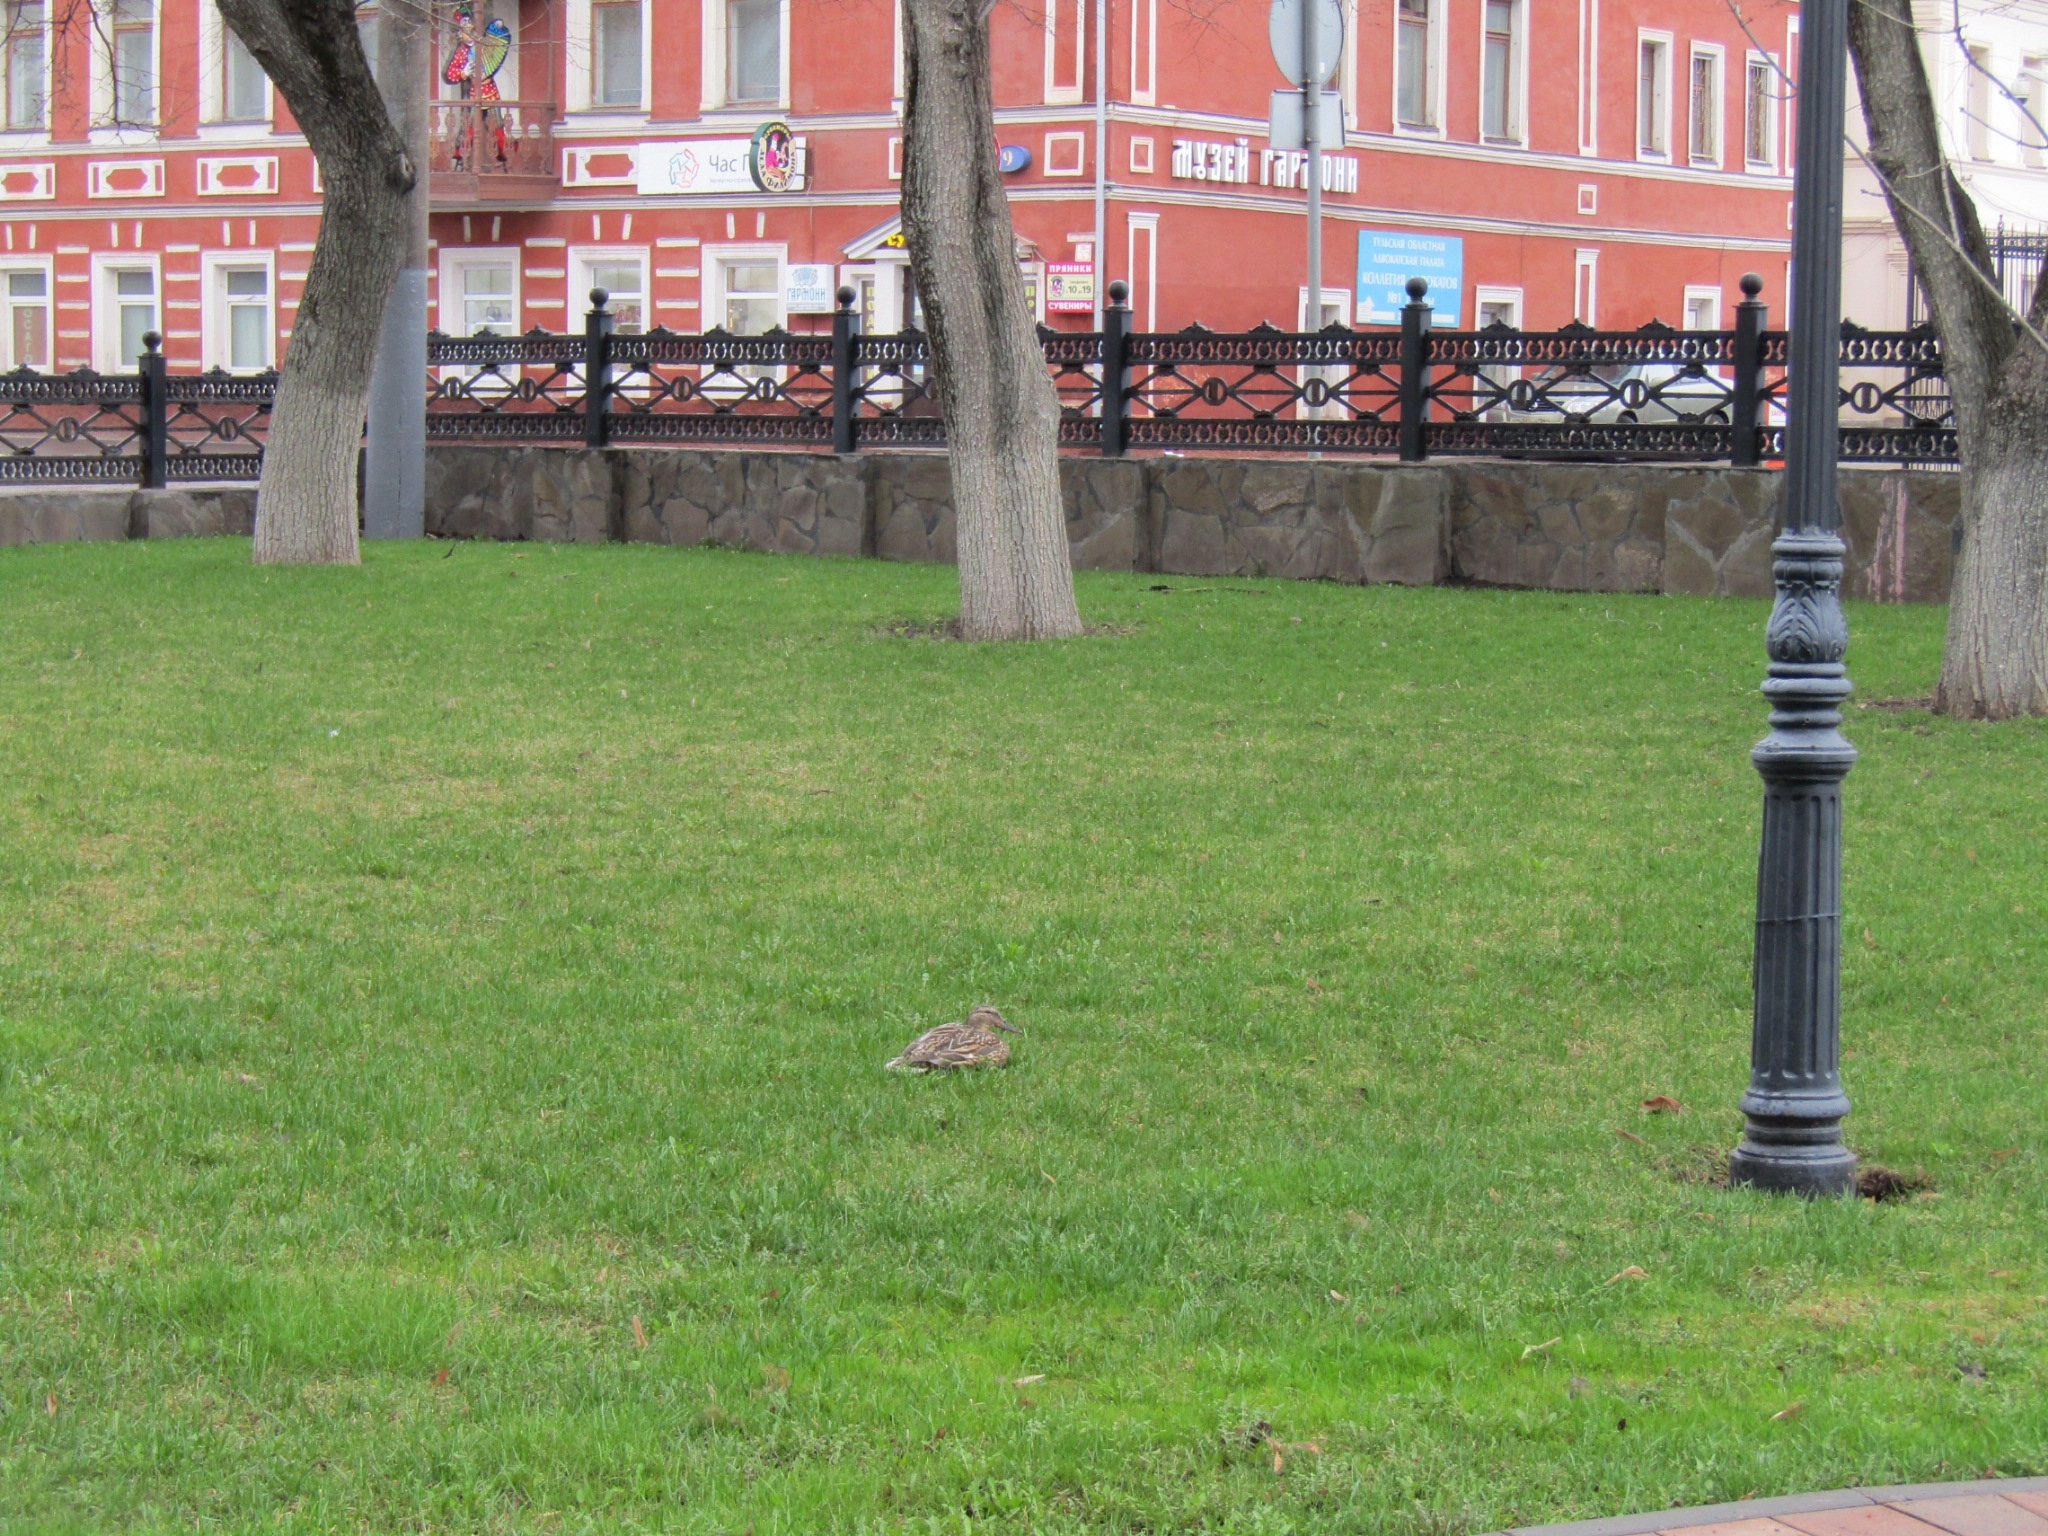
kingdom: Animalia
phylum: Chordata
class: Aves
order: Anseriformes
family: Anatidae
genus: Anas
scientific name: Anas platyrhynchos
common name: Mallard
